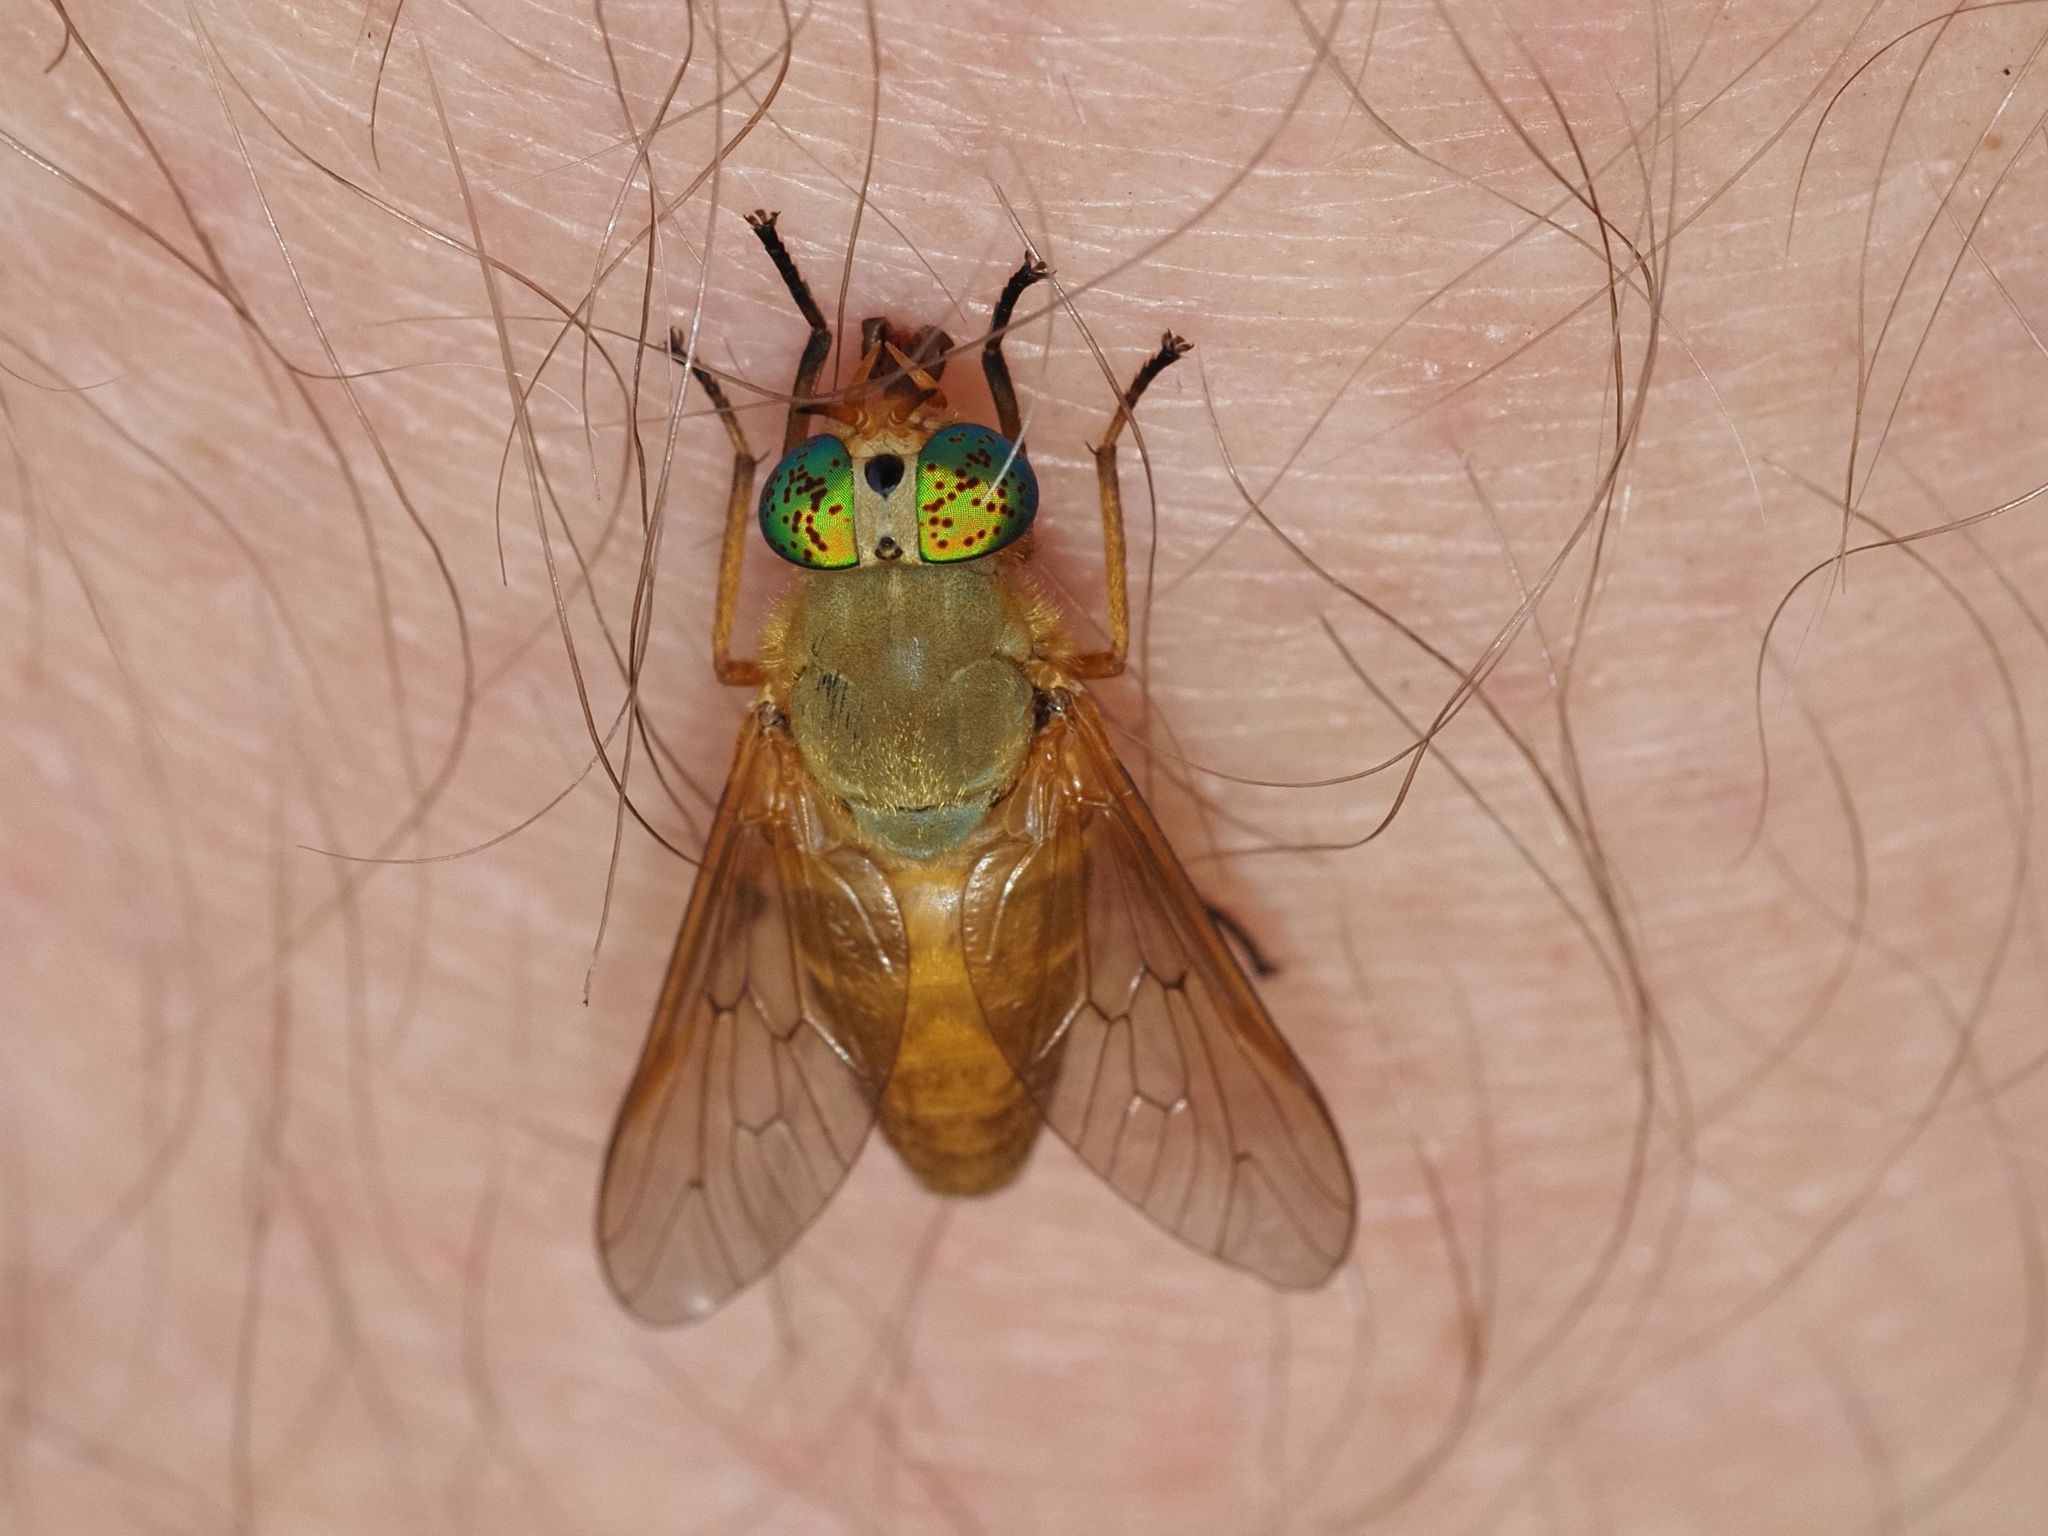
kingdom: Animalia
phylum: Arthropoda
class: Insecta
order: Diptera
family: Tabanidae
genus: Silvius
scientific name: Silvius alpinus
